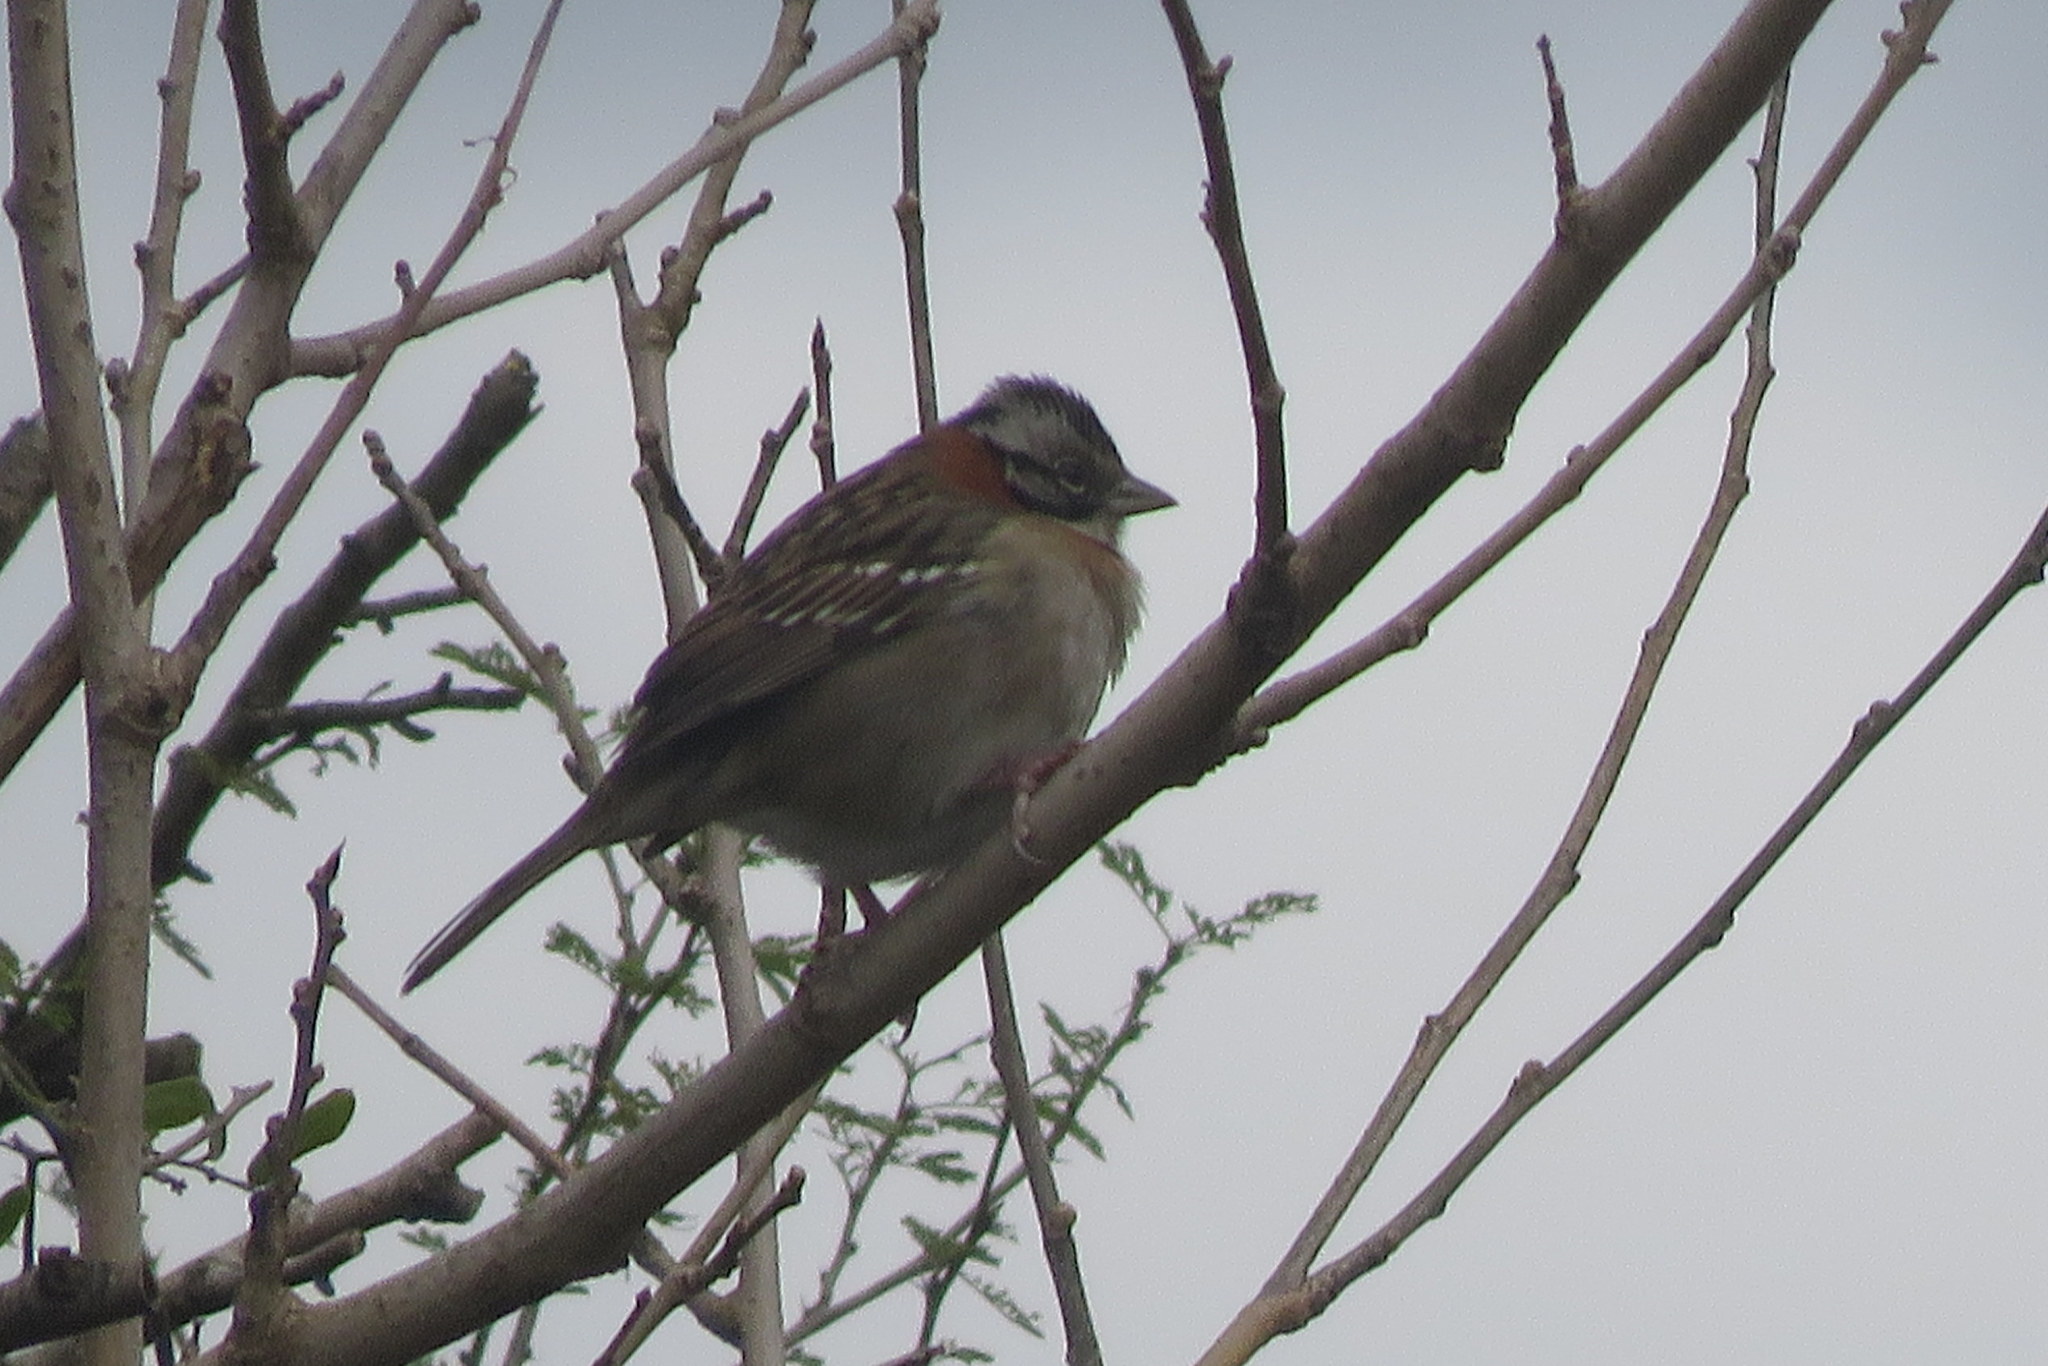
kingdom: Animalia
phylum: Chordata
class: Aves
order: Passeriformes
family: Passerellidae
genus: Zonotrichia
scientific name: Zonotrichia capensis
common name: Rufous-collared sparrow
